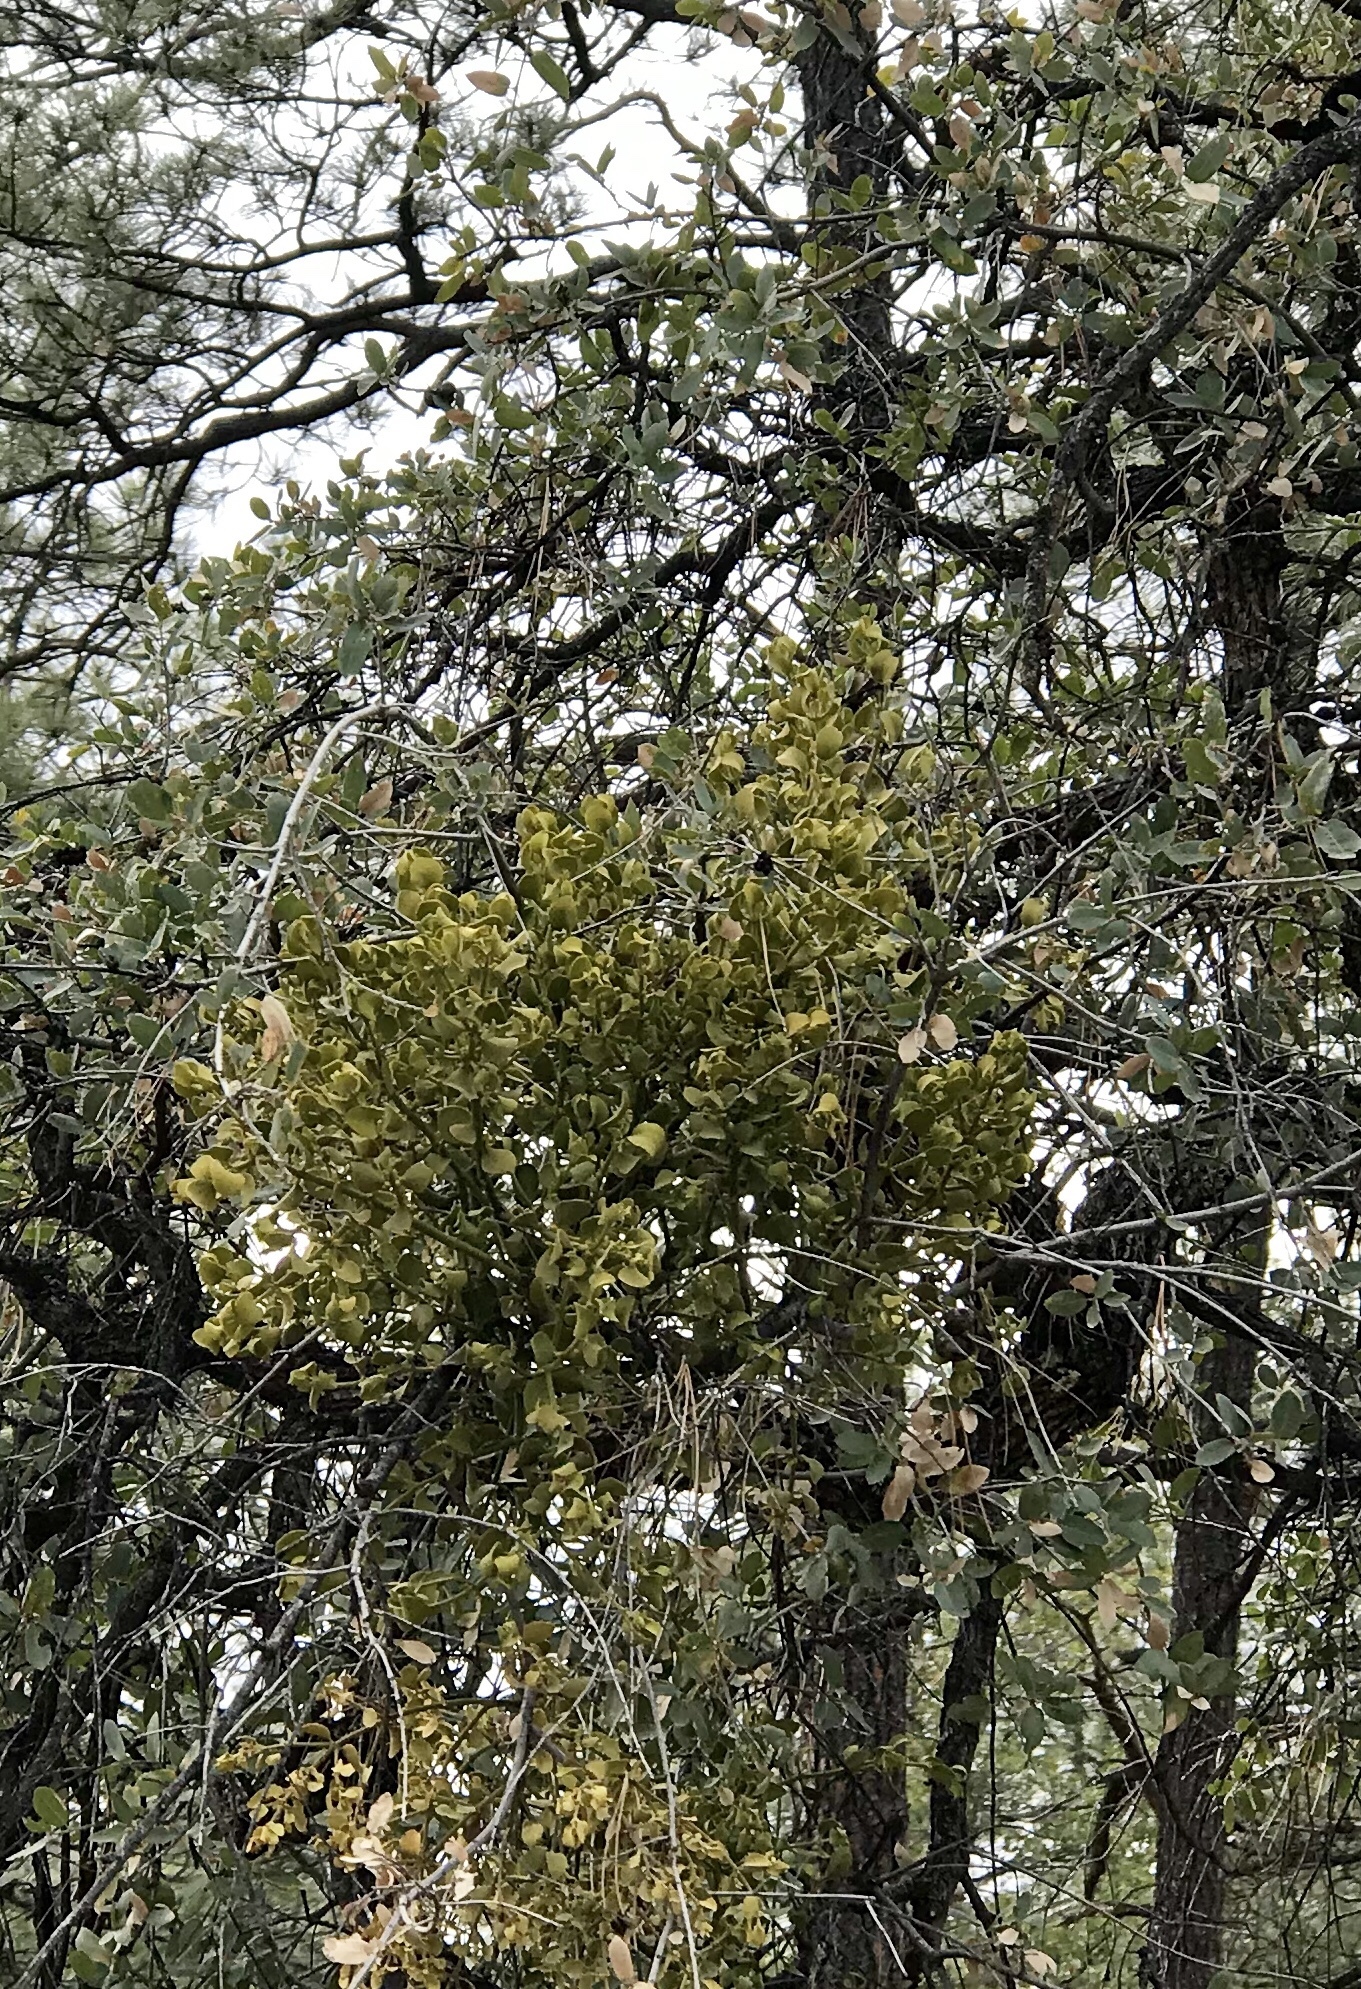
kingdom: Plantae
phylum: Tracheophyta
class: Magnoliopsida
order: Santalales
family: Viscaceae
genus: Phoradendron
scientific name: Phoradendron coryae
